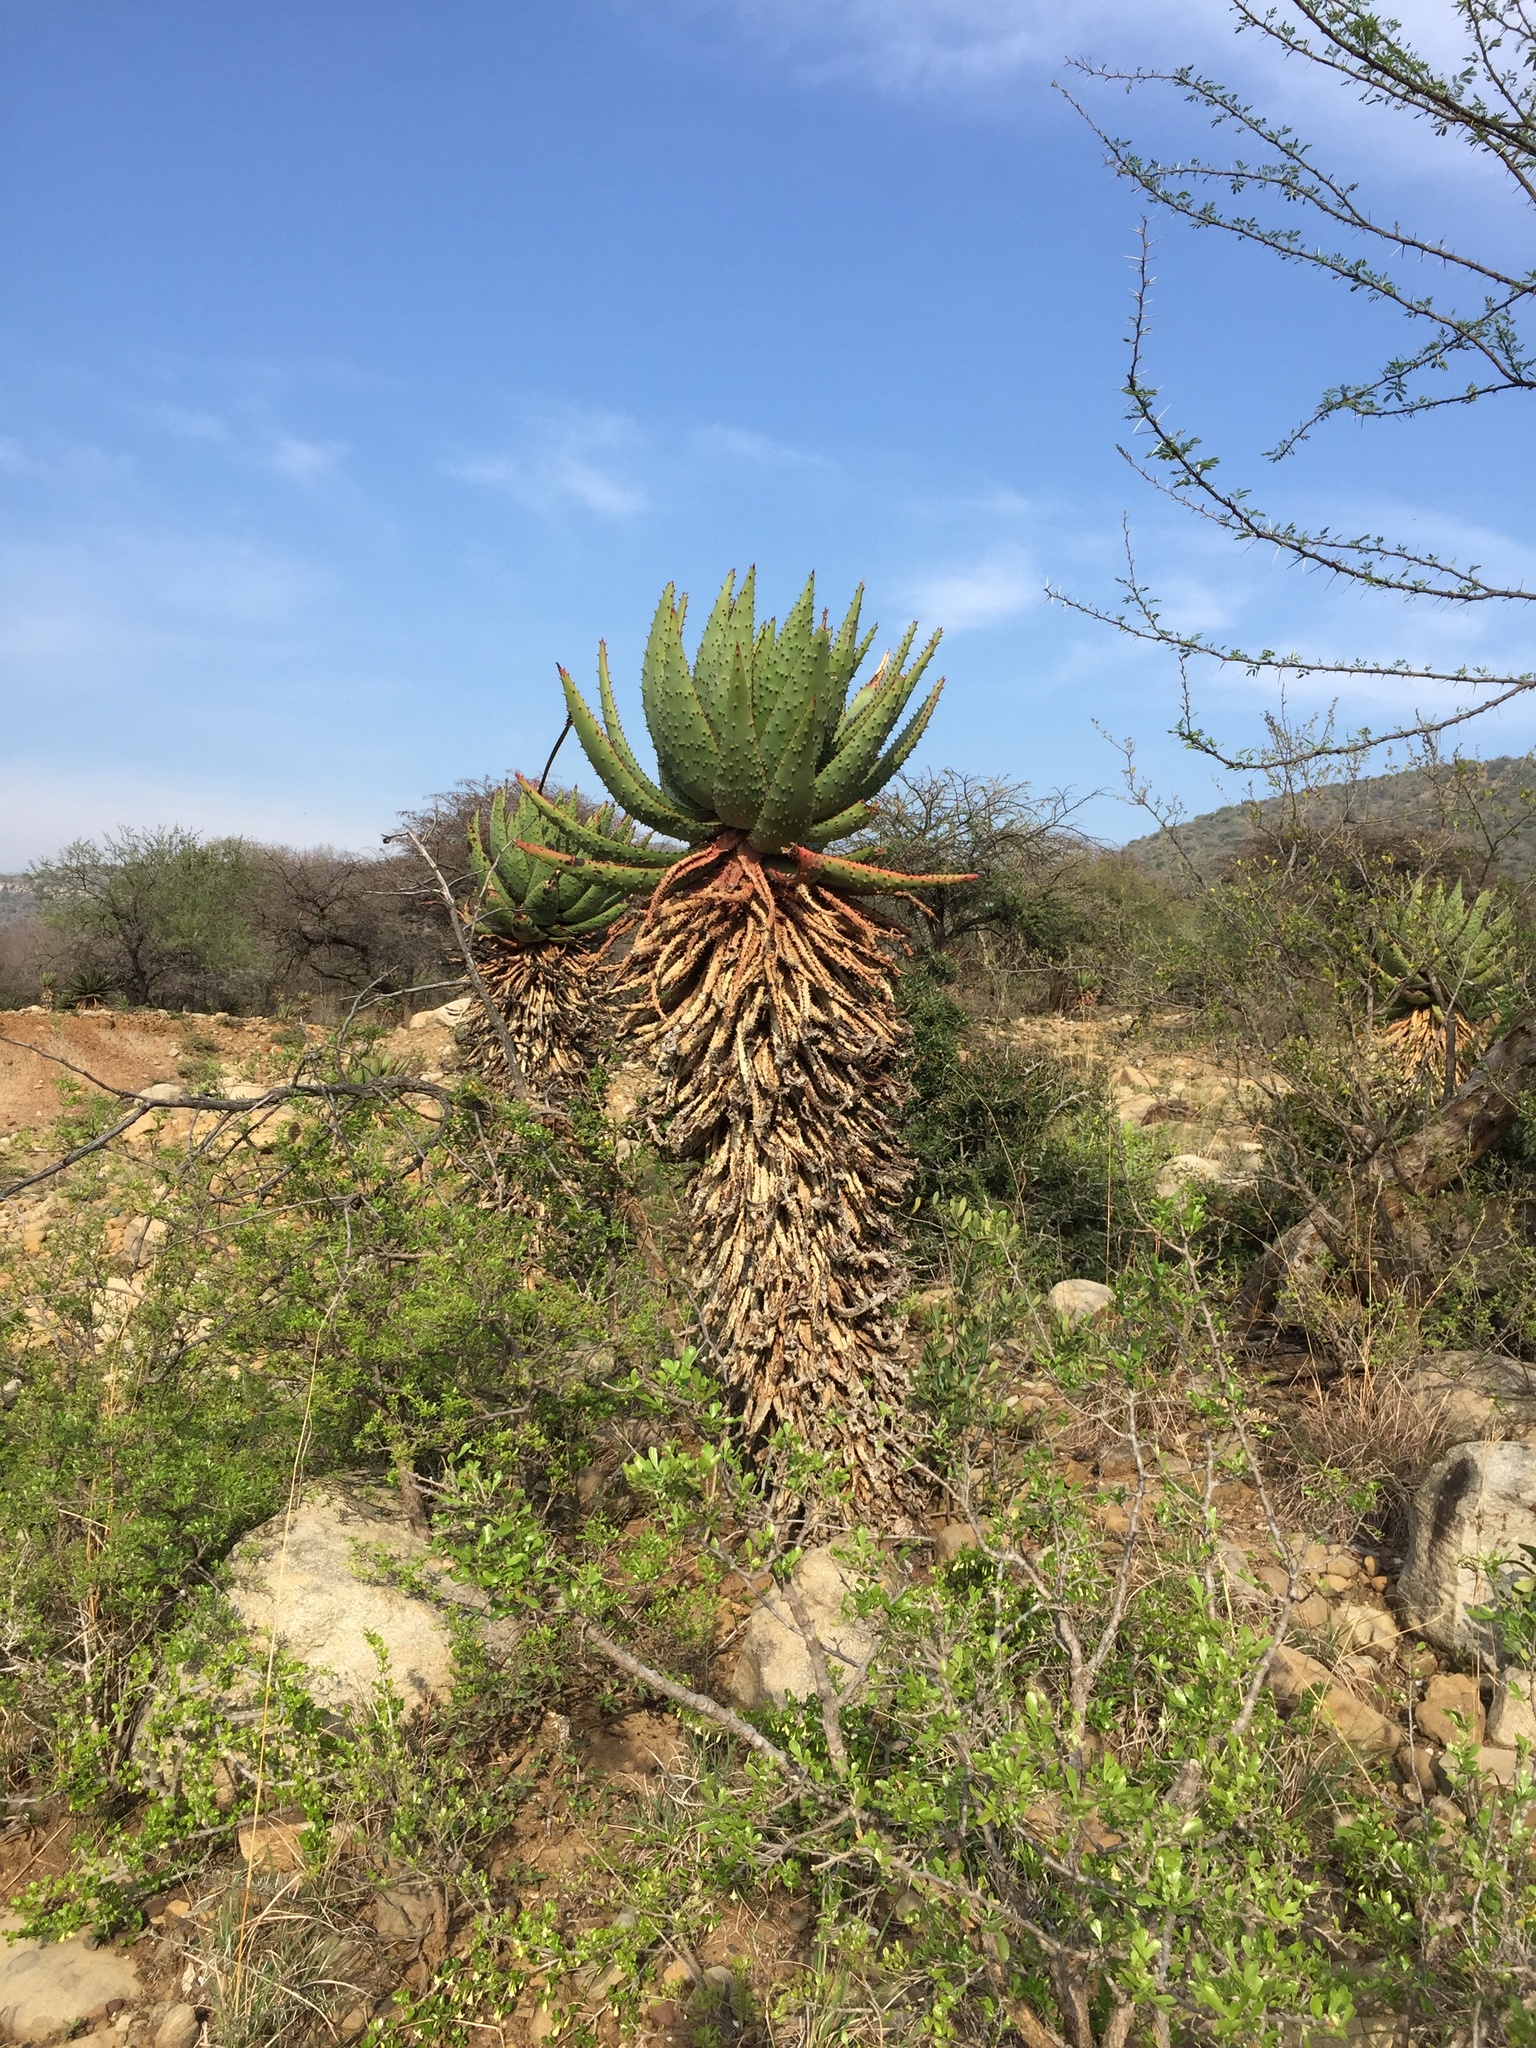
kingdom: Plantae
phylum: Tracheophyta
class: Liliopsida
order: Asparagales
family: Asphodelaceae
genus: Aloe
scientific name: Aloe marlothii
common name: Flat-flowered aloe
